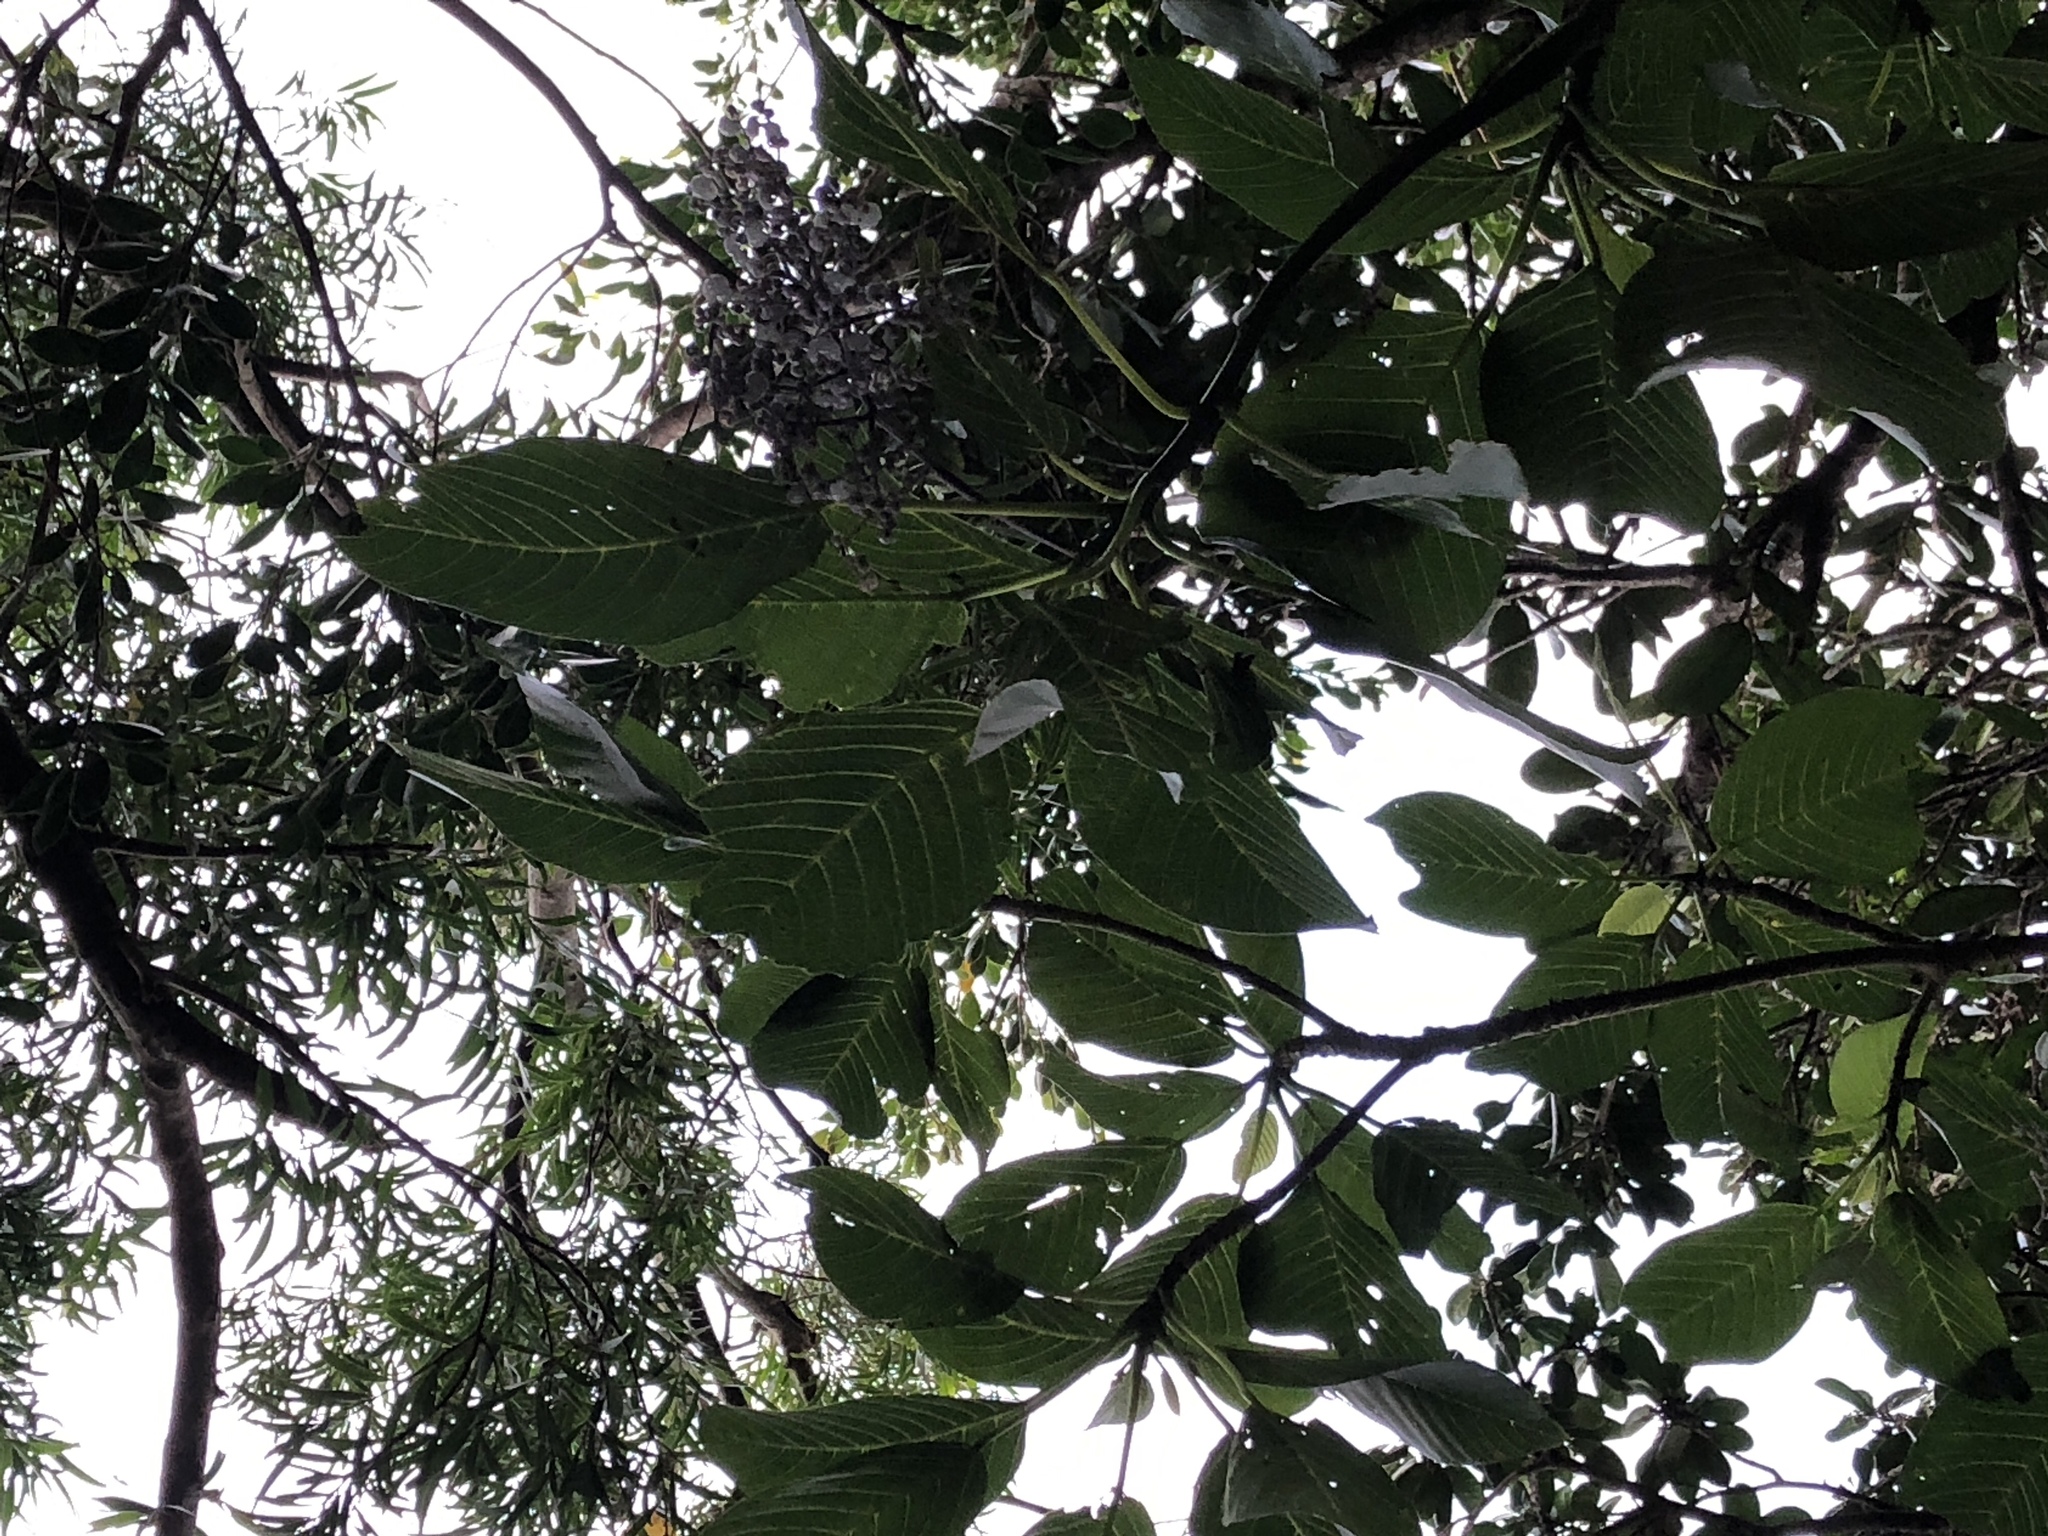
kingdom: Plantae
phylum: Tracheophyta
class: Magnoliopsida
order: Rosales
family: Urticaceae
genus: Dendrocnide
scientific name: Dendrocnide meyeniana
